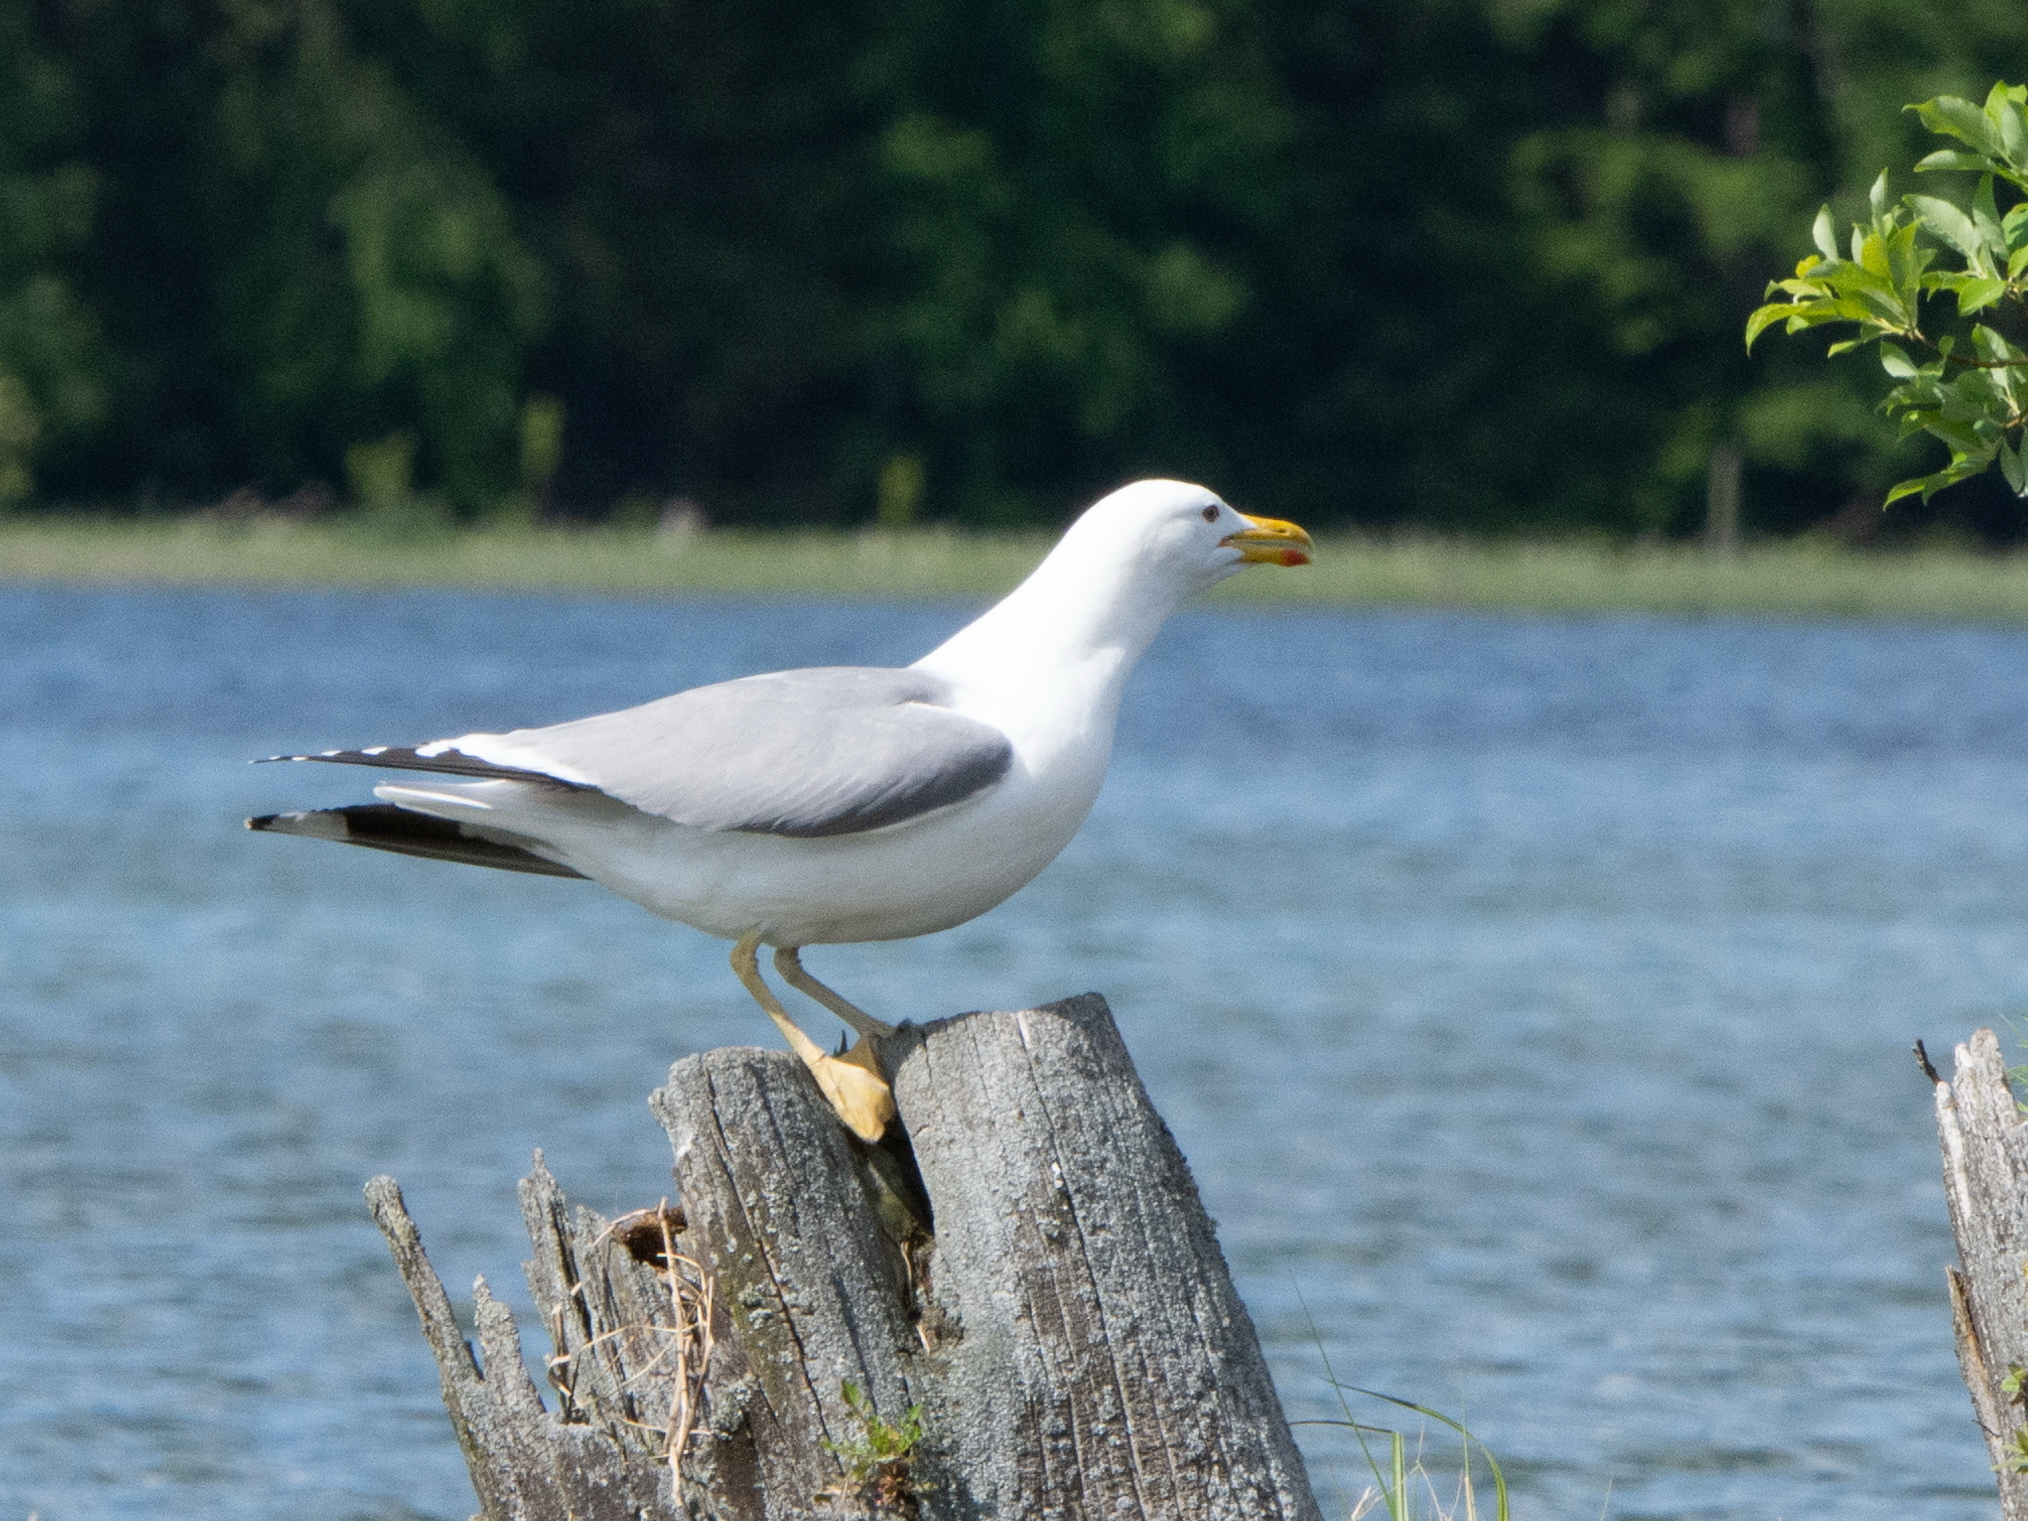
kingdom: Animalia
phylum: Chordata
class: Aves
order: Charadriiformes
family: Laridae
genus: Larus
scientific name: Larus cachinnans
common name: Caspian gull
